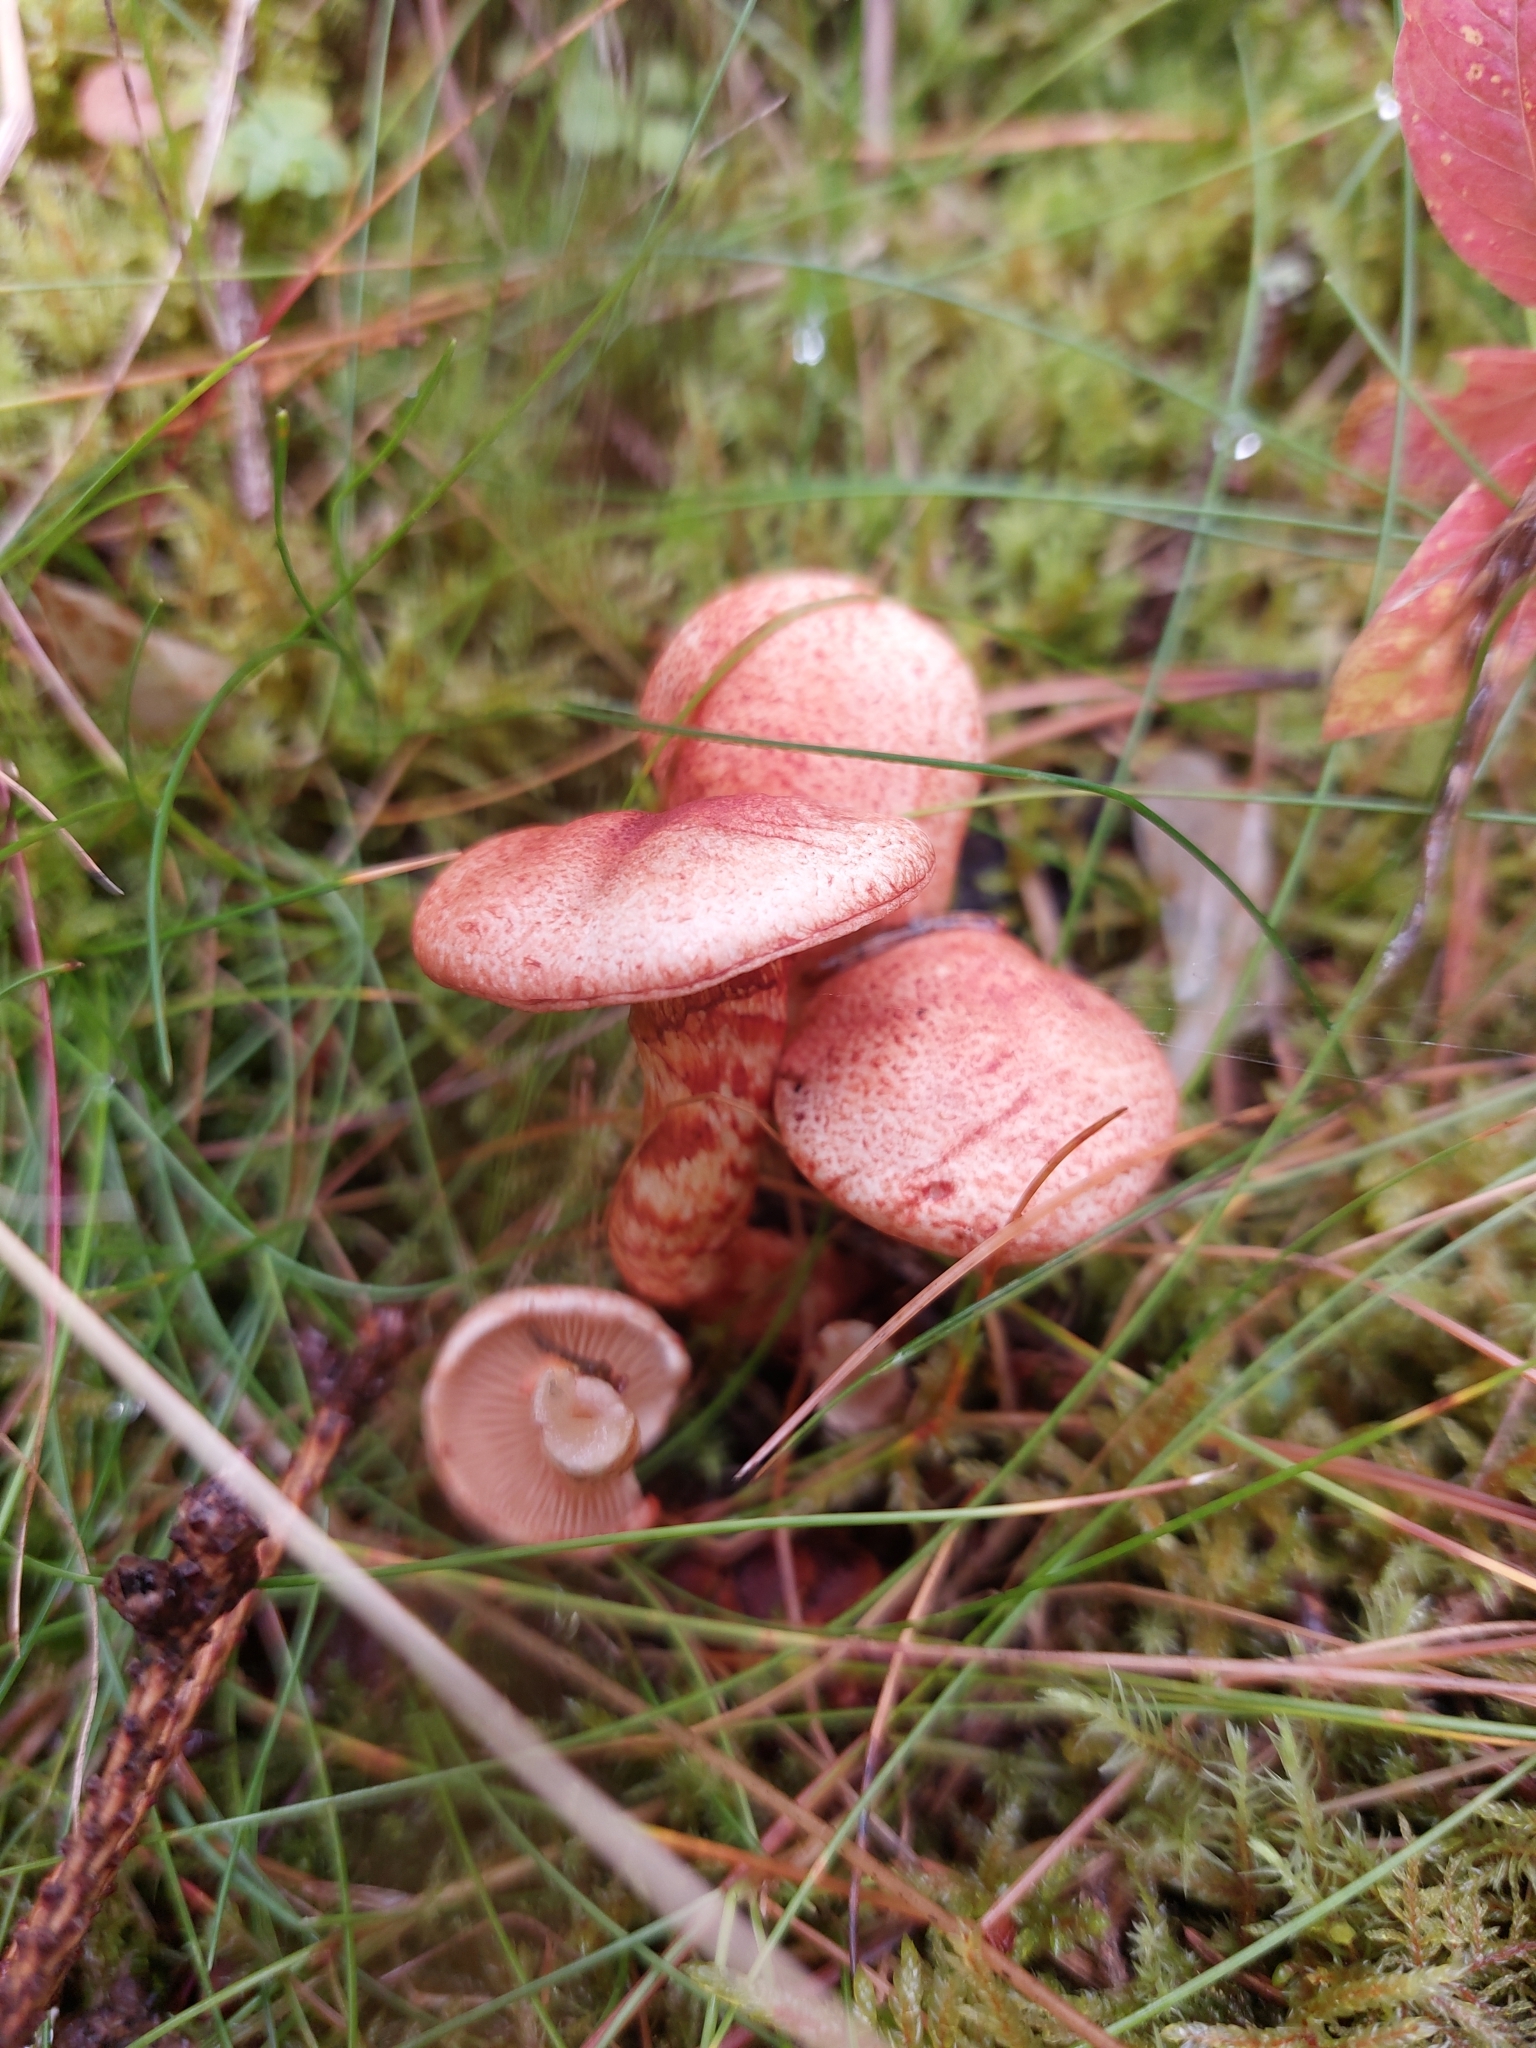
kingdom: Fungi
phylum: Basidiomycota
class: Agaricomycetes
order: Agaricales
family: Cortinariaceae
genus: Cortinarius
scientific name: Cortinarius bolaris
